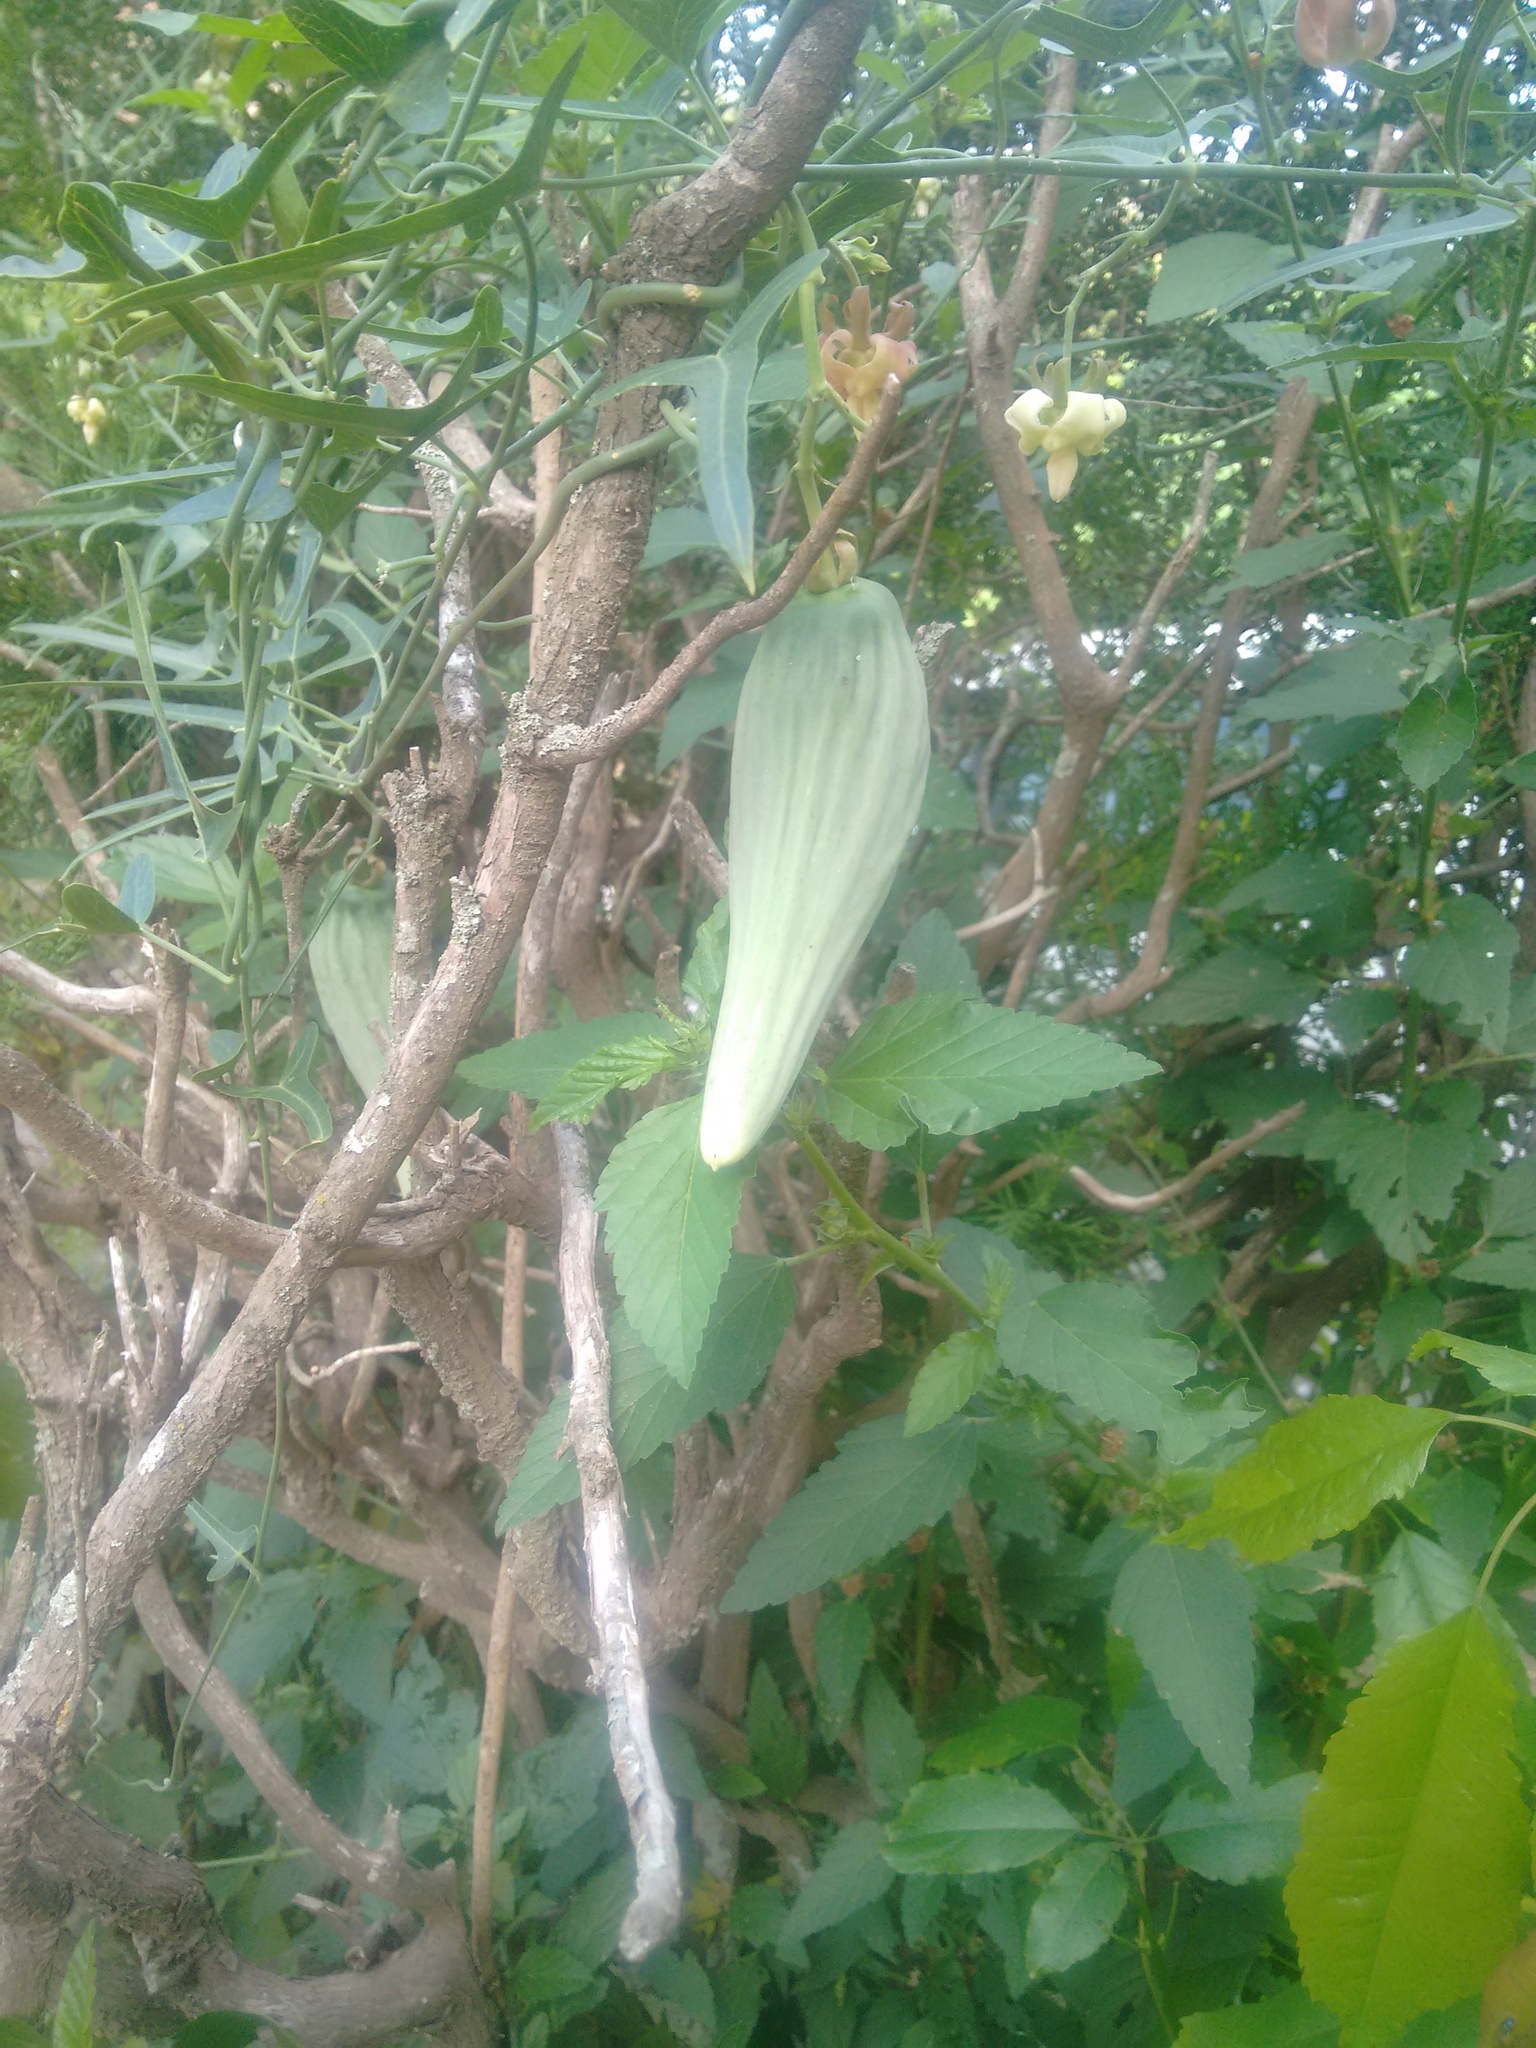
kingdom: Plantae
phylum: Tracheophyta
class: Magnoliopsida
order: Gentianales
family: Apocynaceae
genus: Araujia
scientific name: Araujia angustifolia
